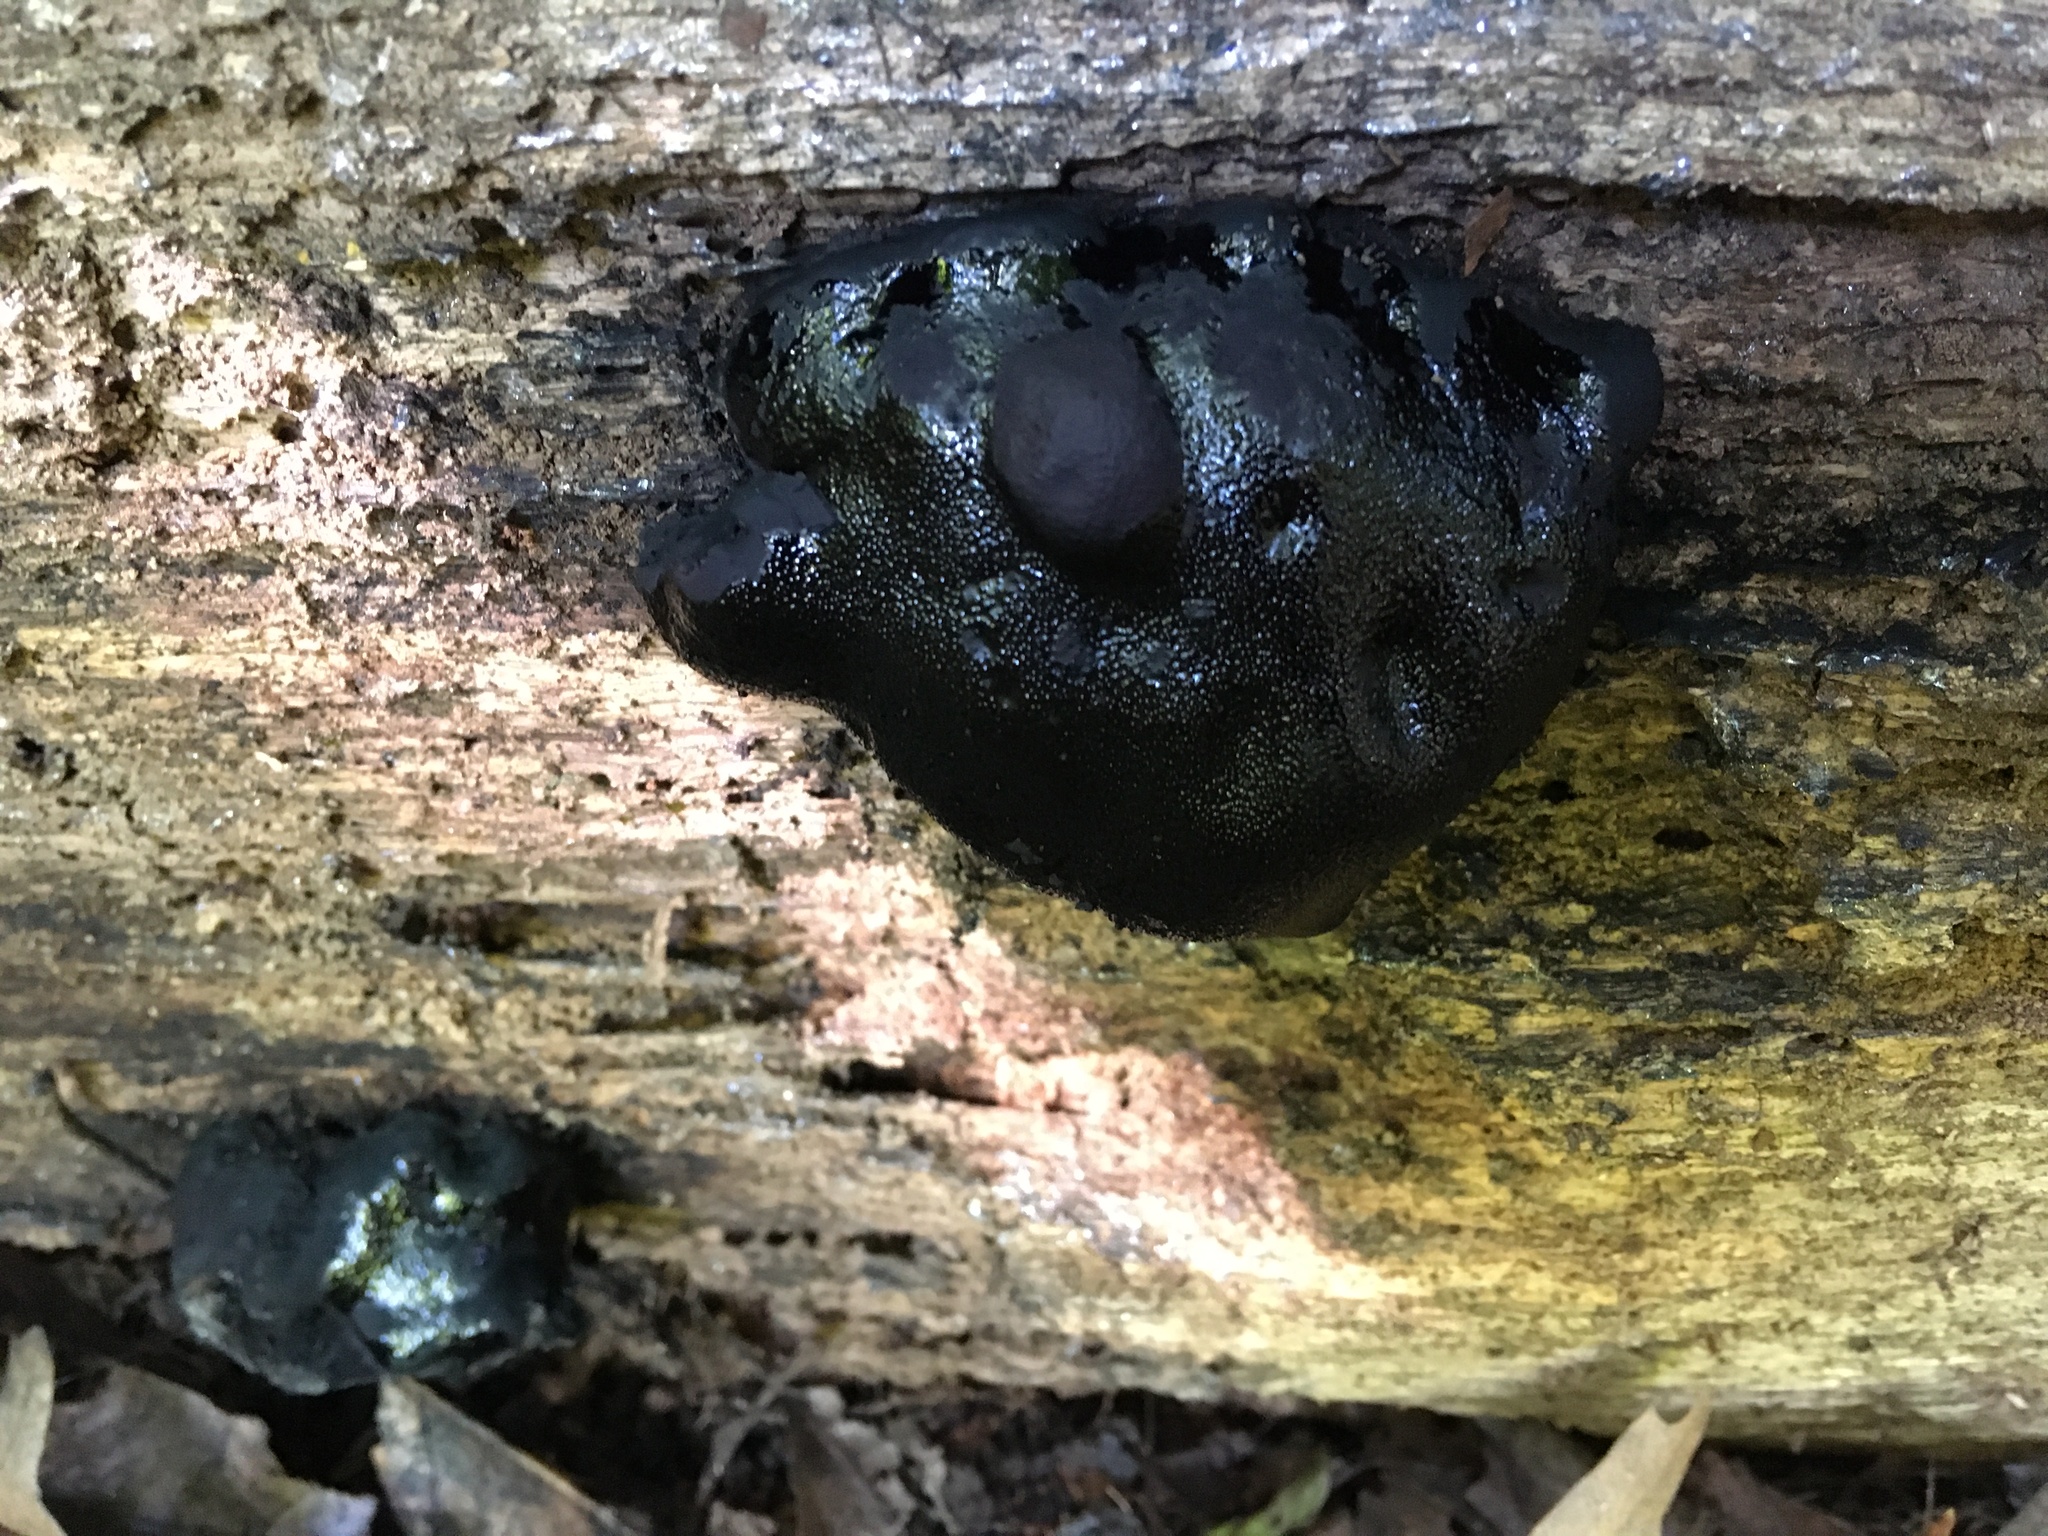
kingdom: Fungi
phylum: Ascomycota
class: Sordariomycetes
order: Boliniales
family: Boliniaceae
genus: Camarops
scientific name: Camarops petersii
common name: Dog's nose fungus
